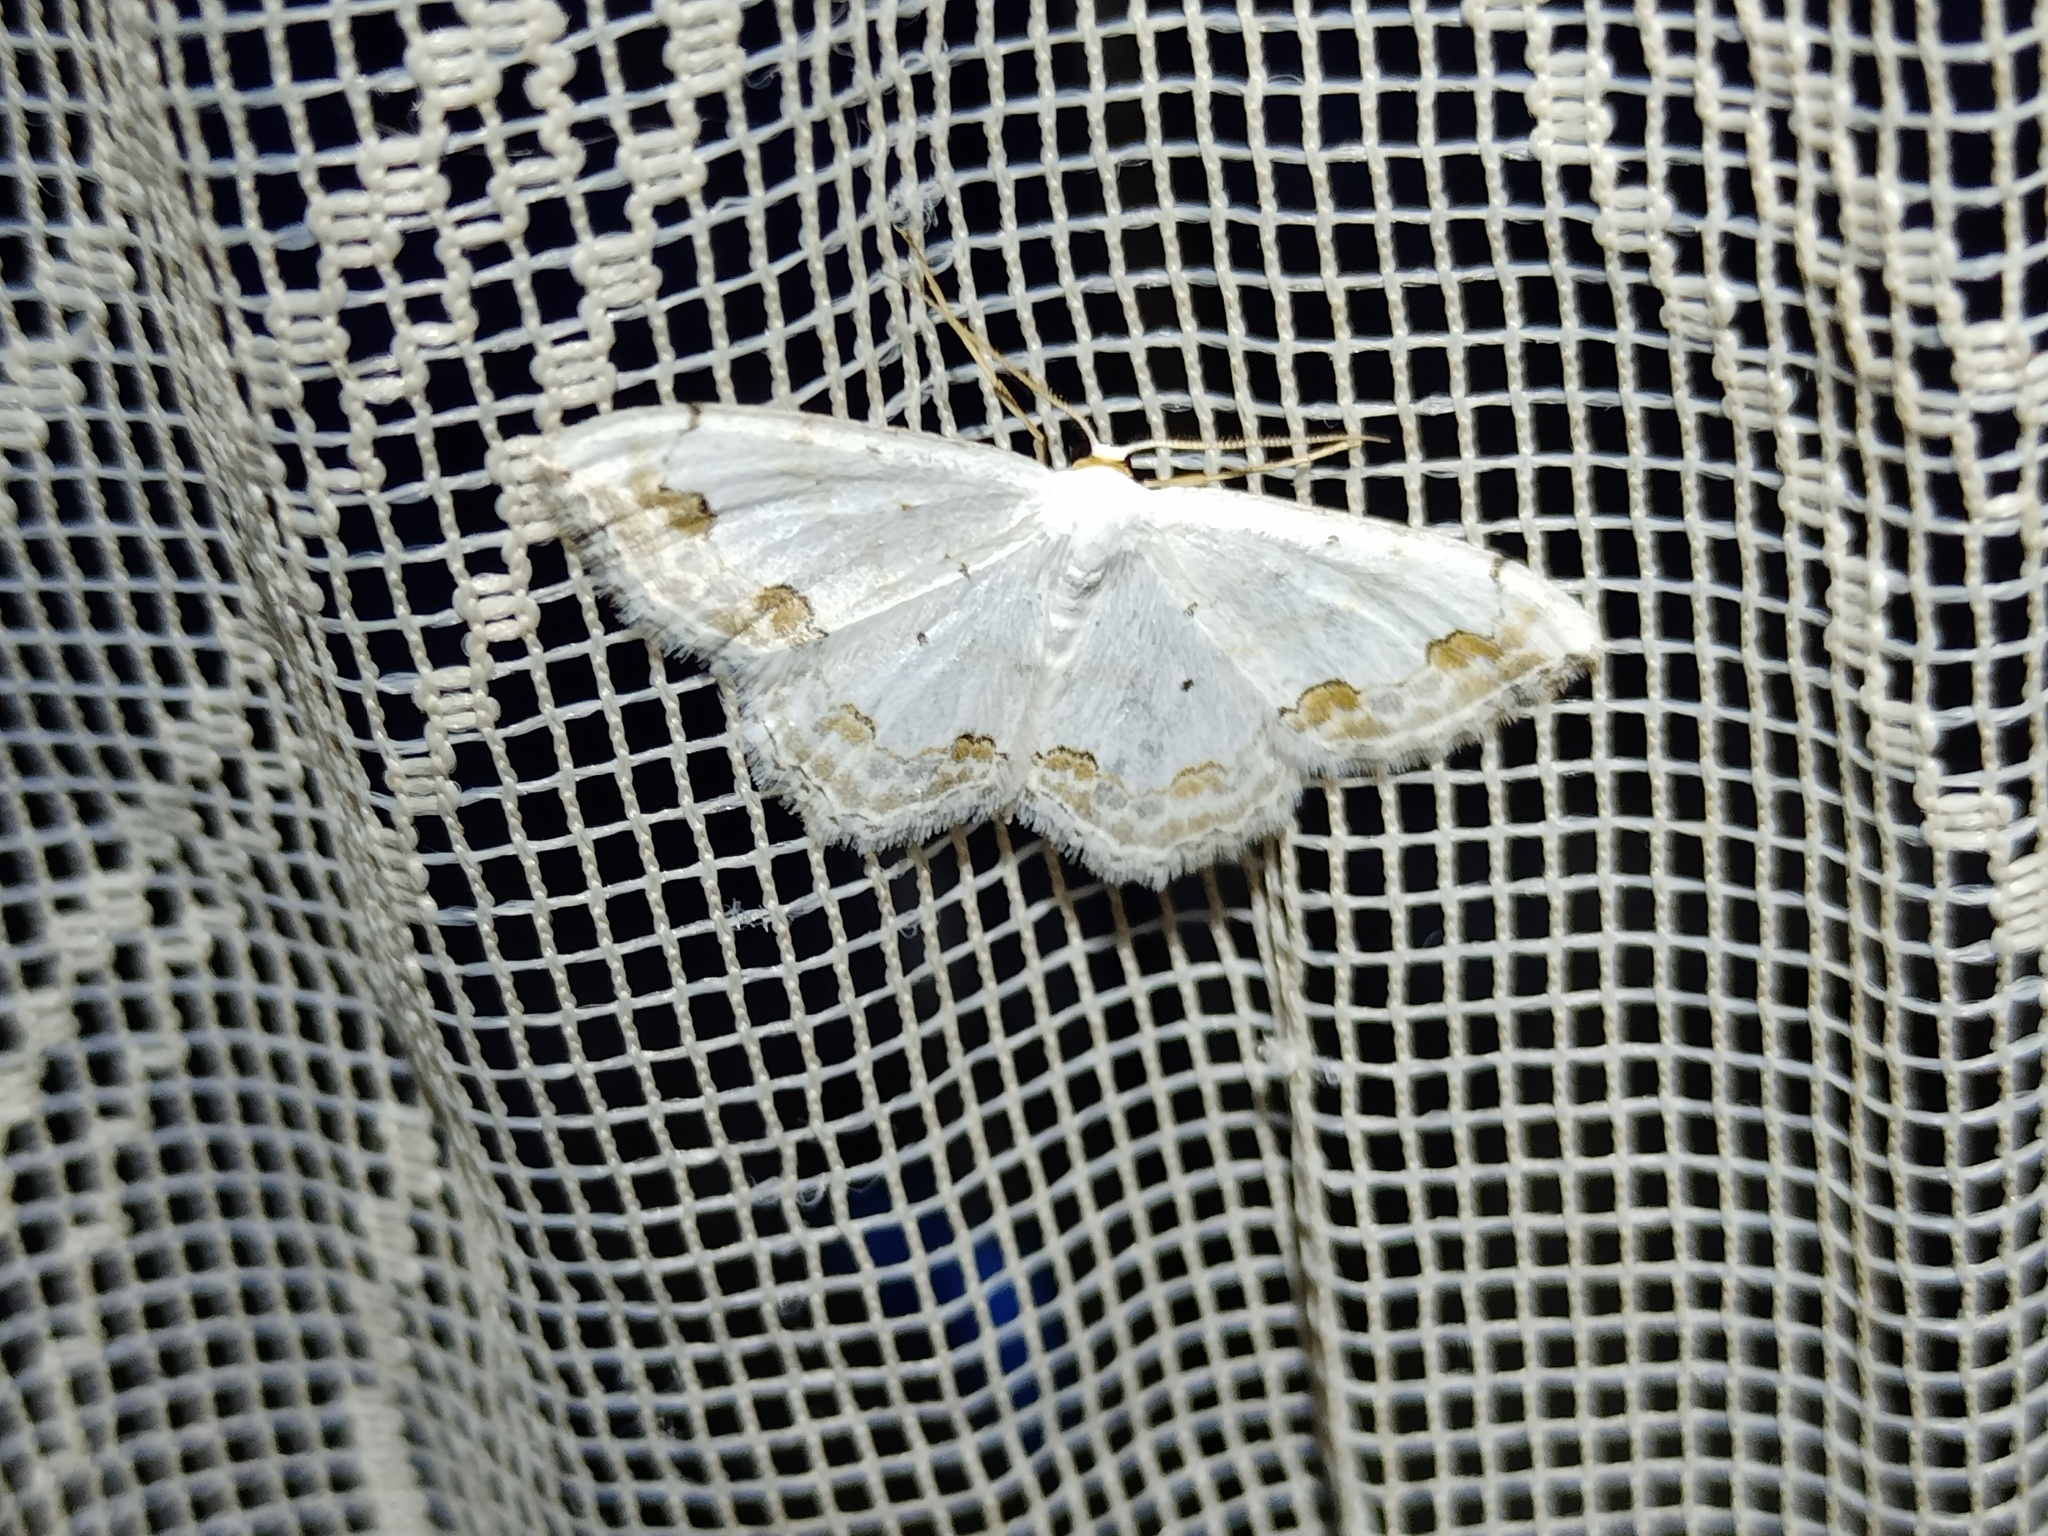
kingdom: Animalia
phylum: Arthropoda
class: Insecta
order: Lepidoptera
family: Geometridae
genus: Scopula
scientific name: Scopula ornata
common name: Lace border
